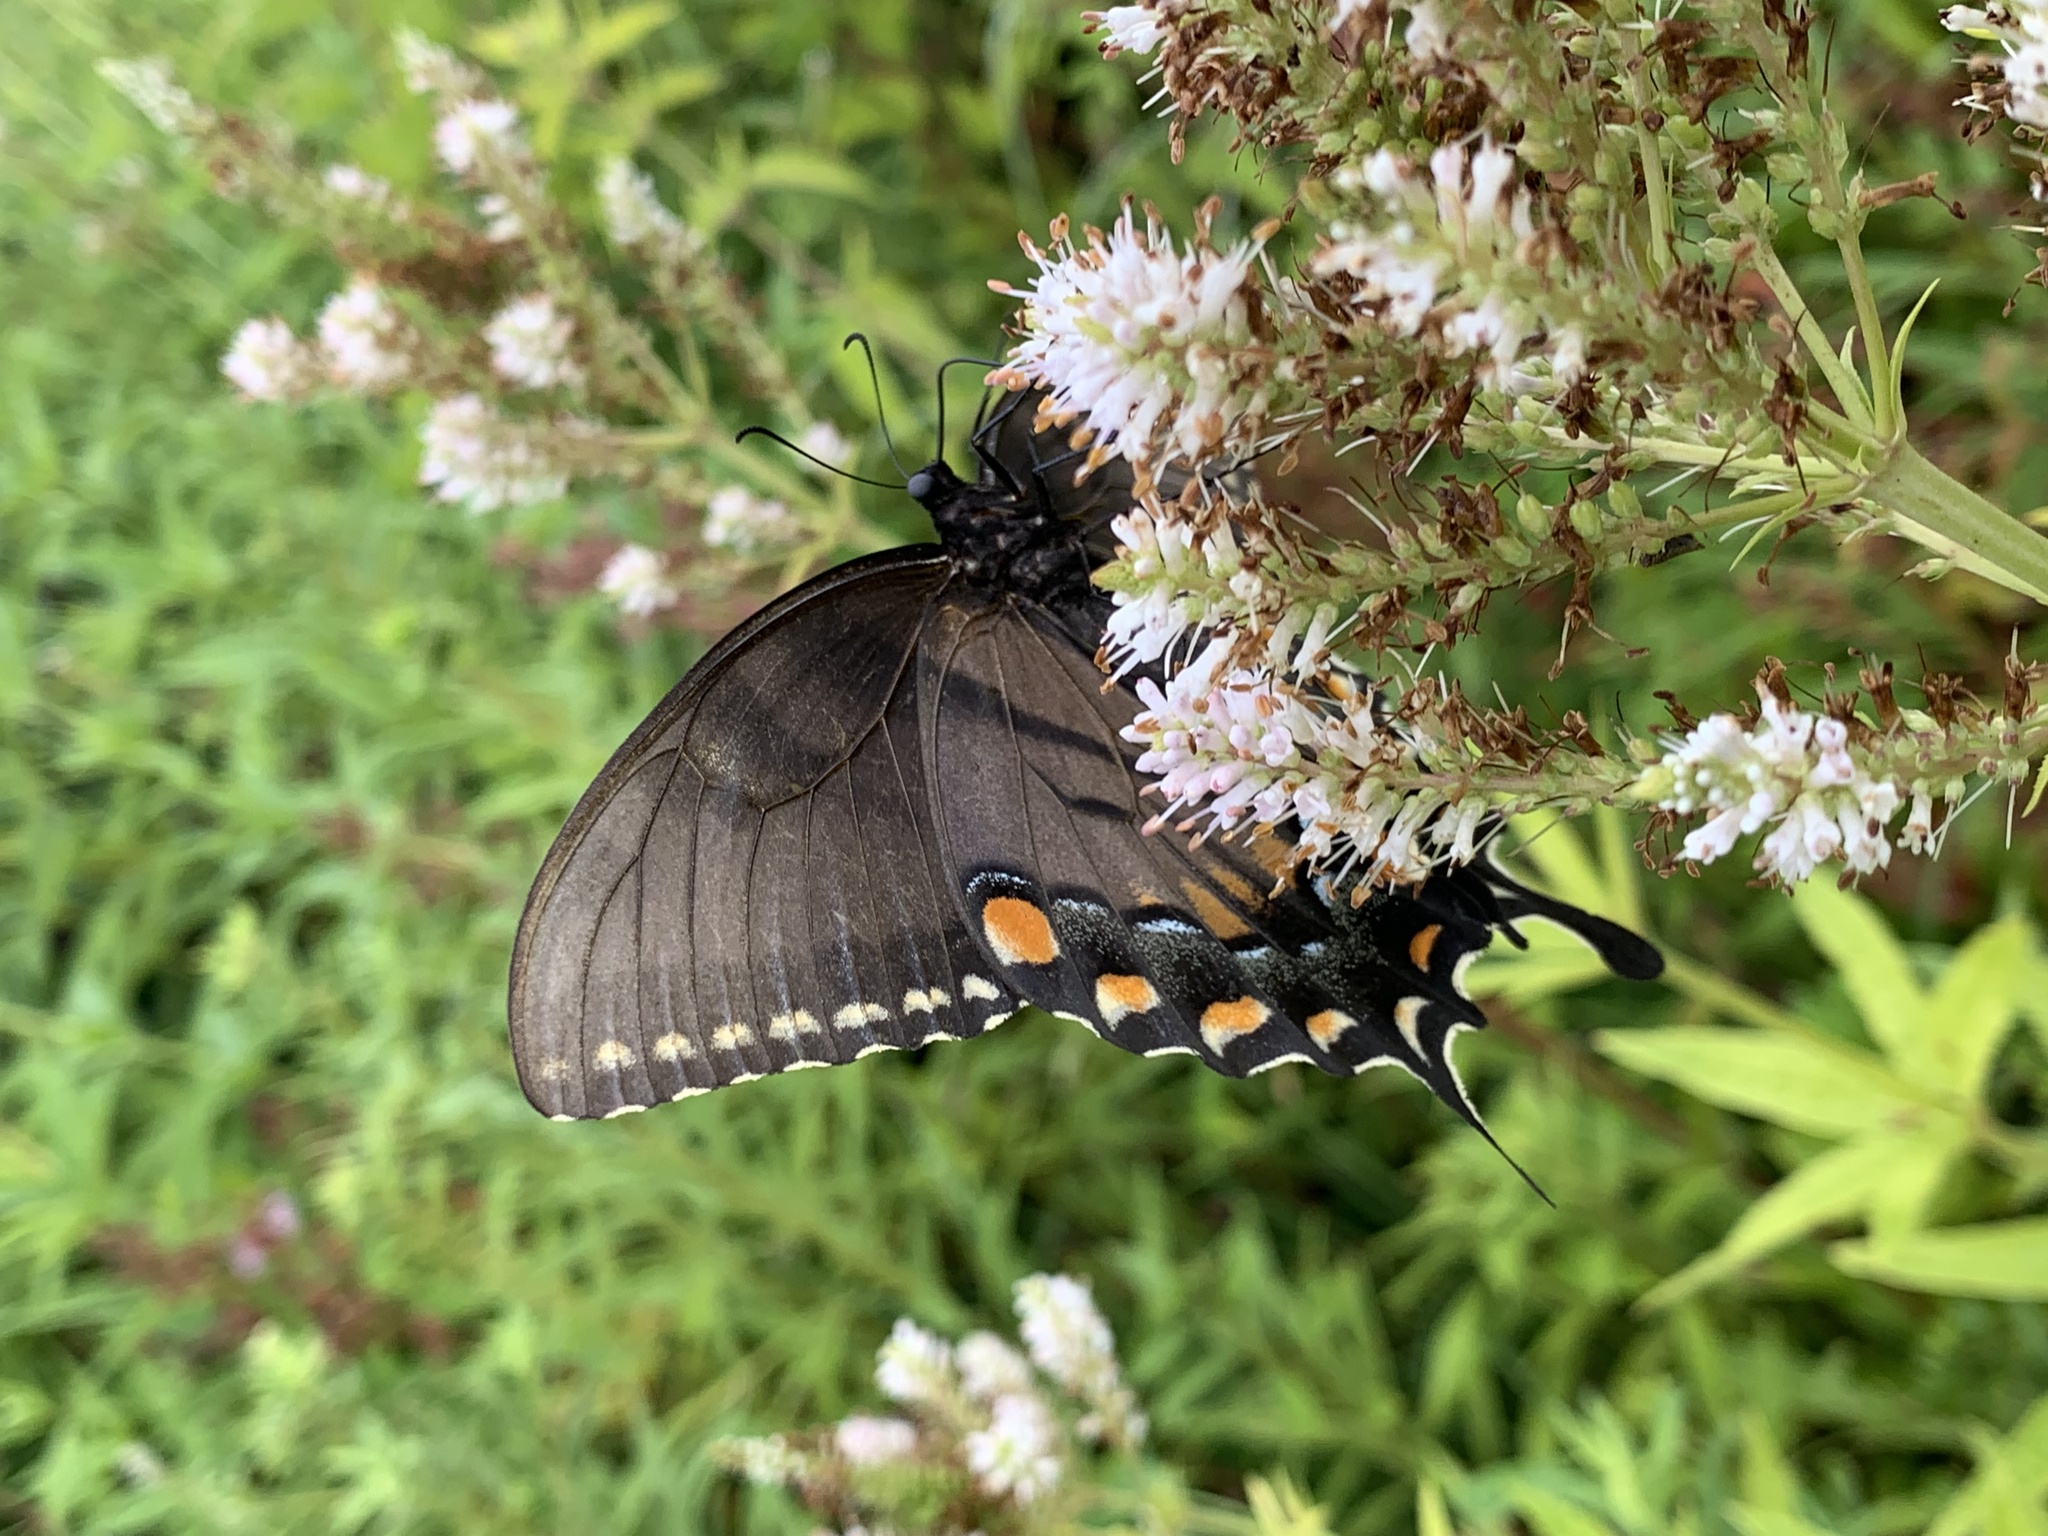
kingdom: Animalia
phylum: Arthropoda
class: Insecta
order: Lepidoptera
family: Papilionidae
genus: Papilio
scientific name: Papilio glaucus
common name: Tiger swallowtail
